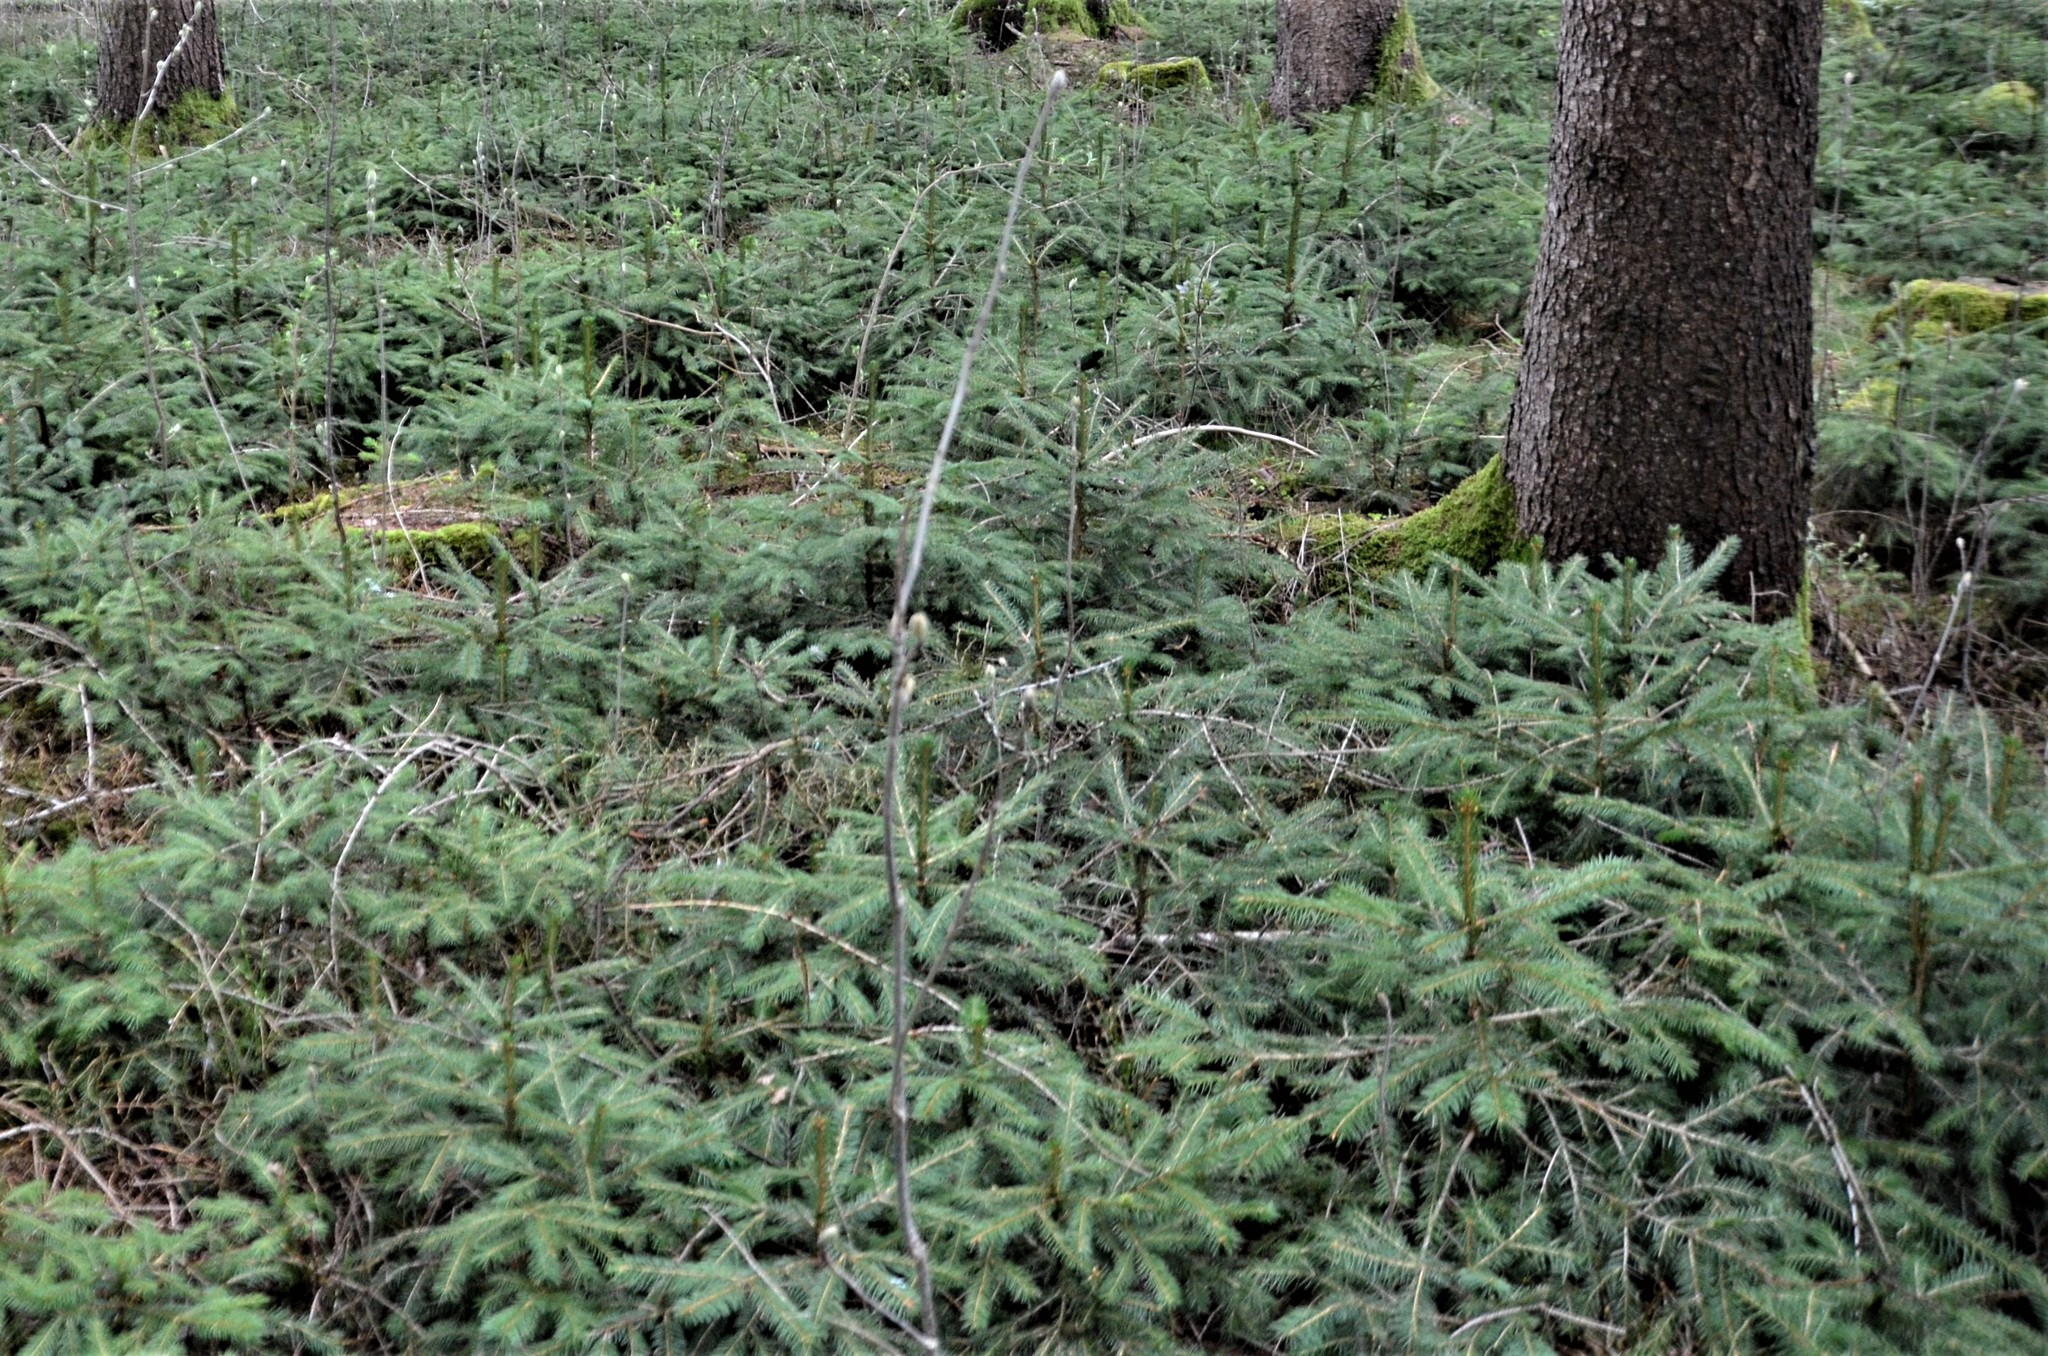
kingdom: Plantae
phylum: Tracheophyta
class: Pinopsida
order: Pinales
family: Pinaceae
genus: Picea
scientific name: Picea abies
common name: Norway spruce
